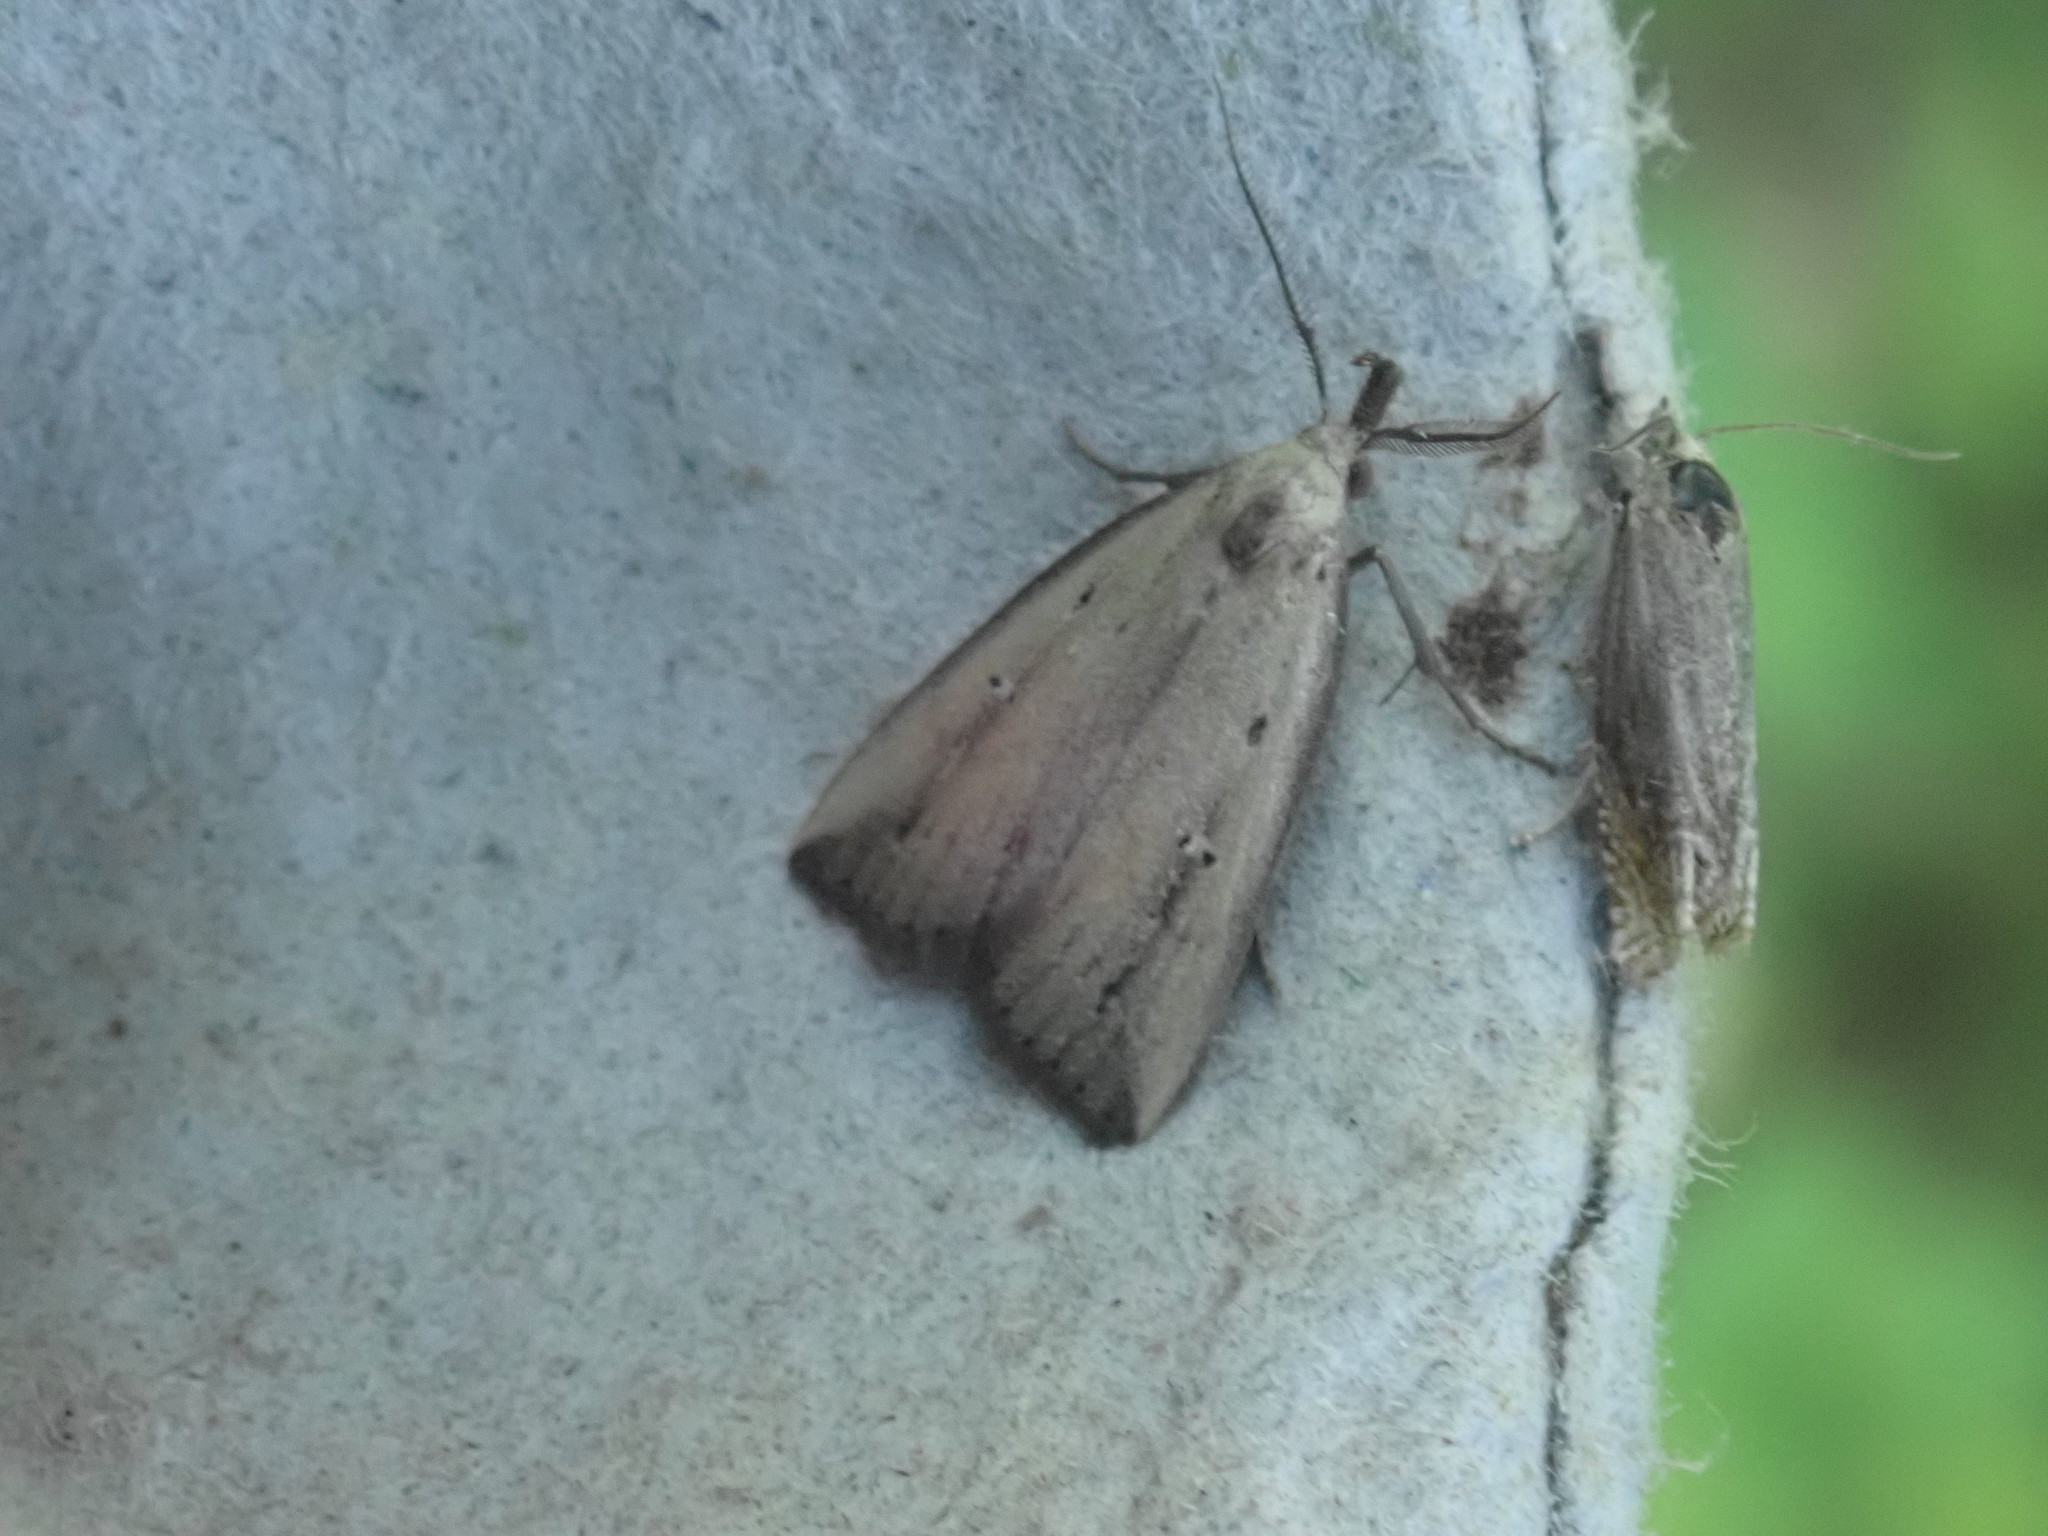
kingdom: Animalia
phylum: Arthropoda
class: Insecta
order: Lepidoptera
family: Erebidae
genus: Macrochilo
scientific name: Macrochilo orciferalis
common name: Bronzy owlet
